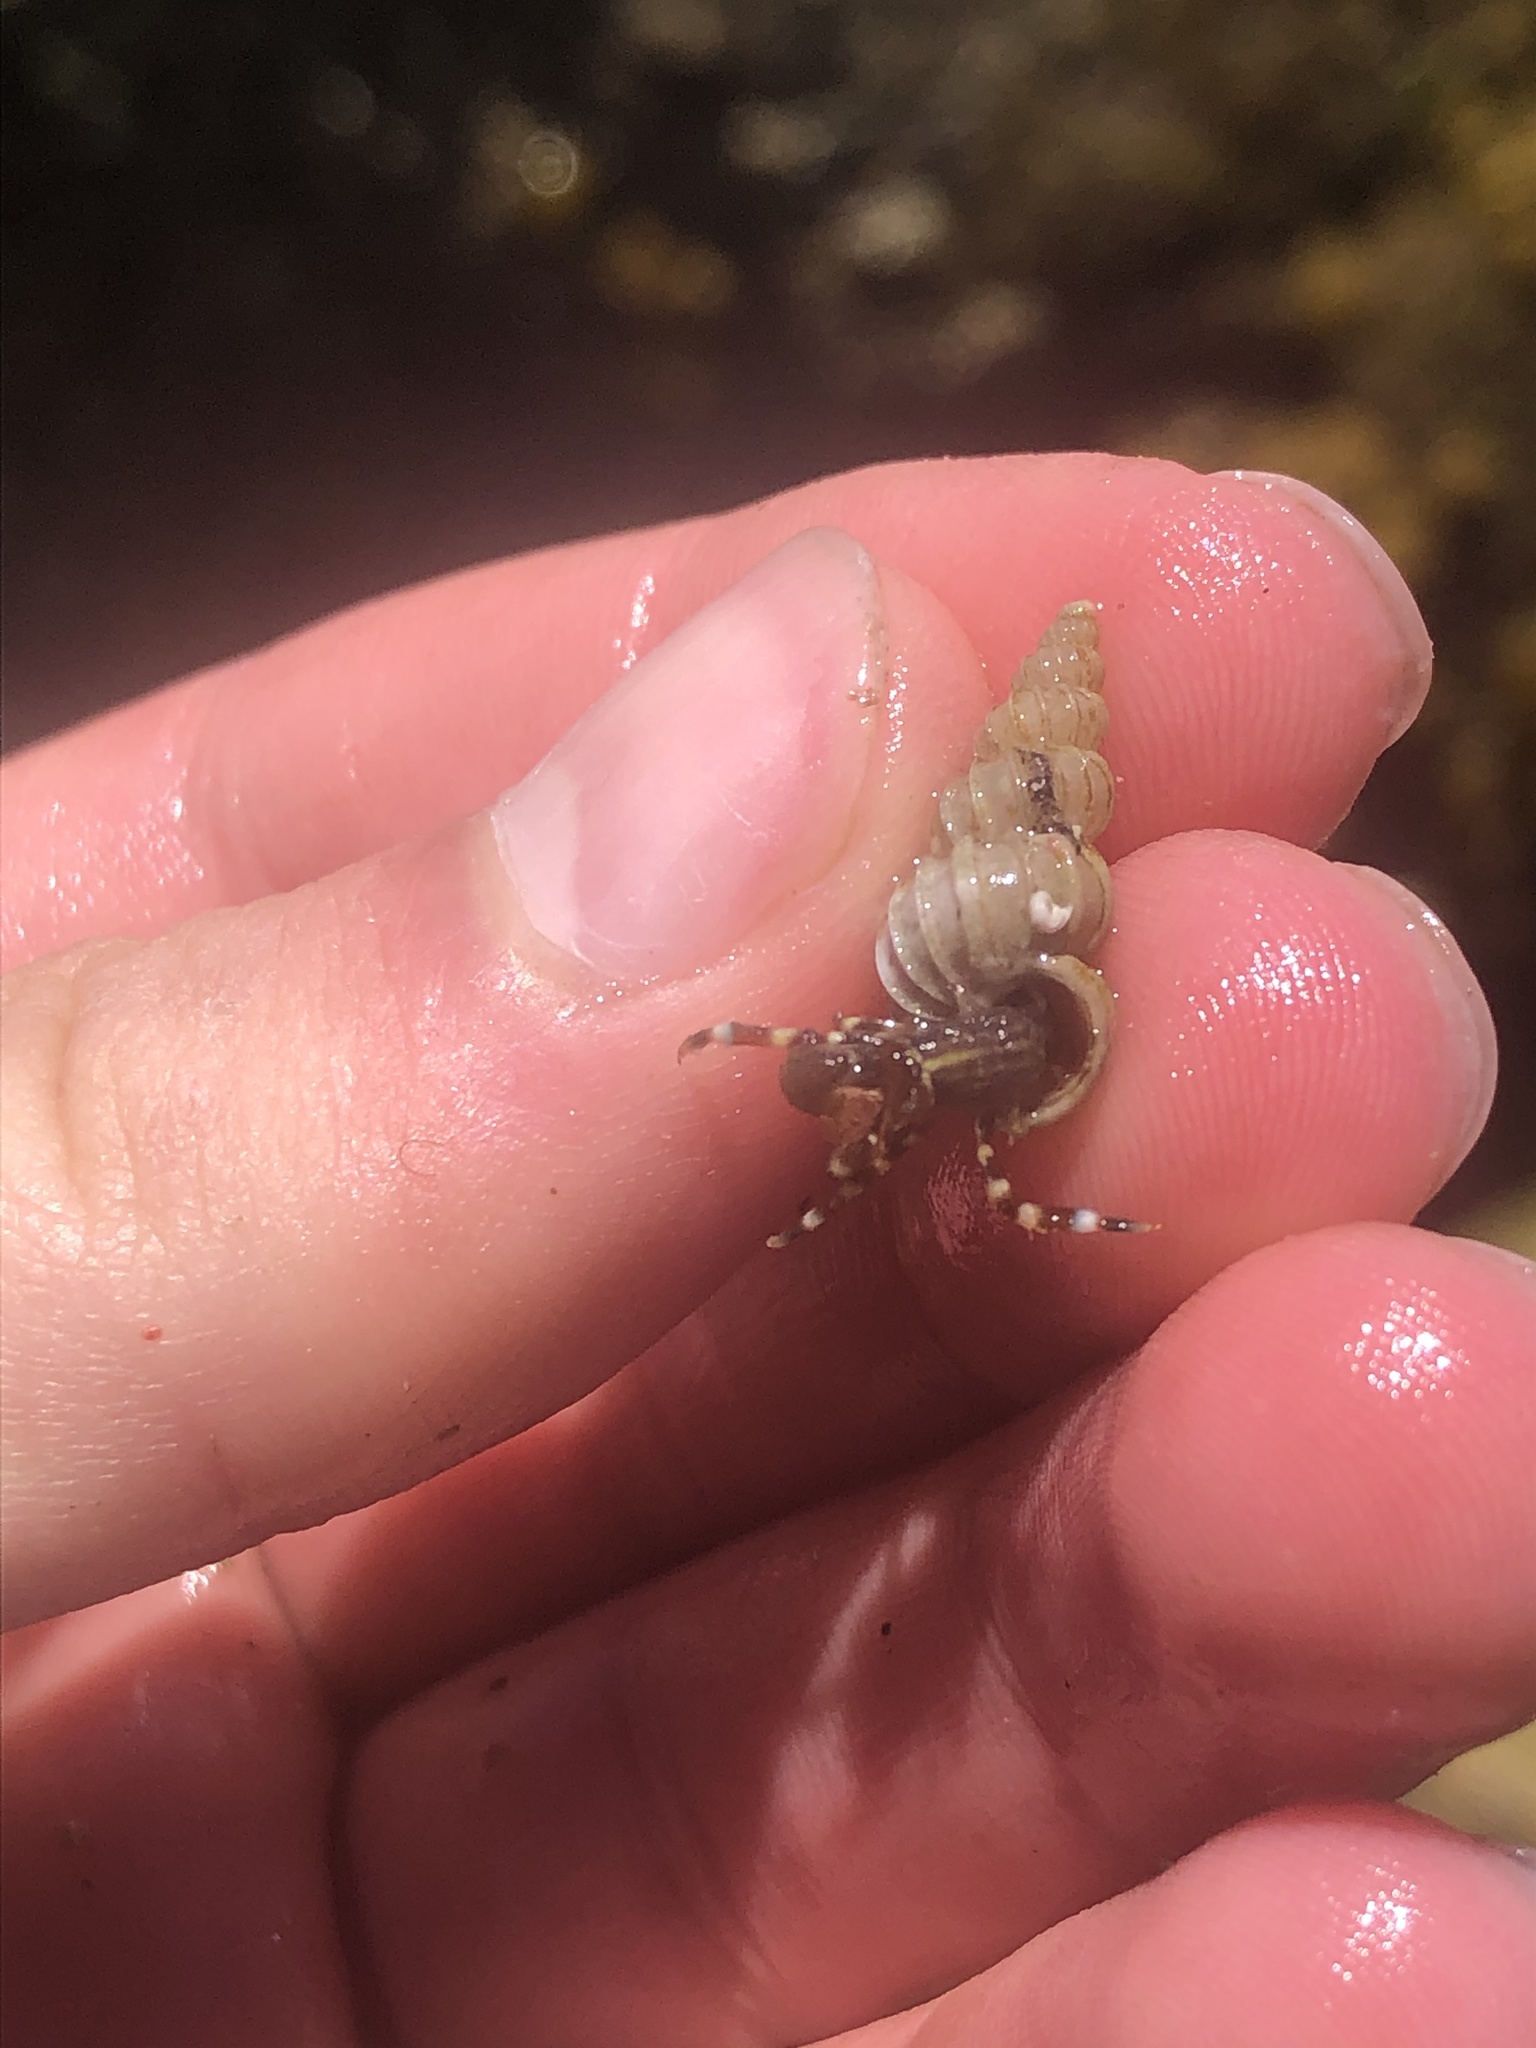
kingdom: Animalia
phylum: Mollusca
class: Gastropoda
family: Epitoniidae
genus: Epitonium
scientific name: Epitonium tinctum
